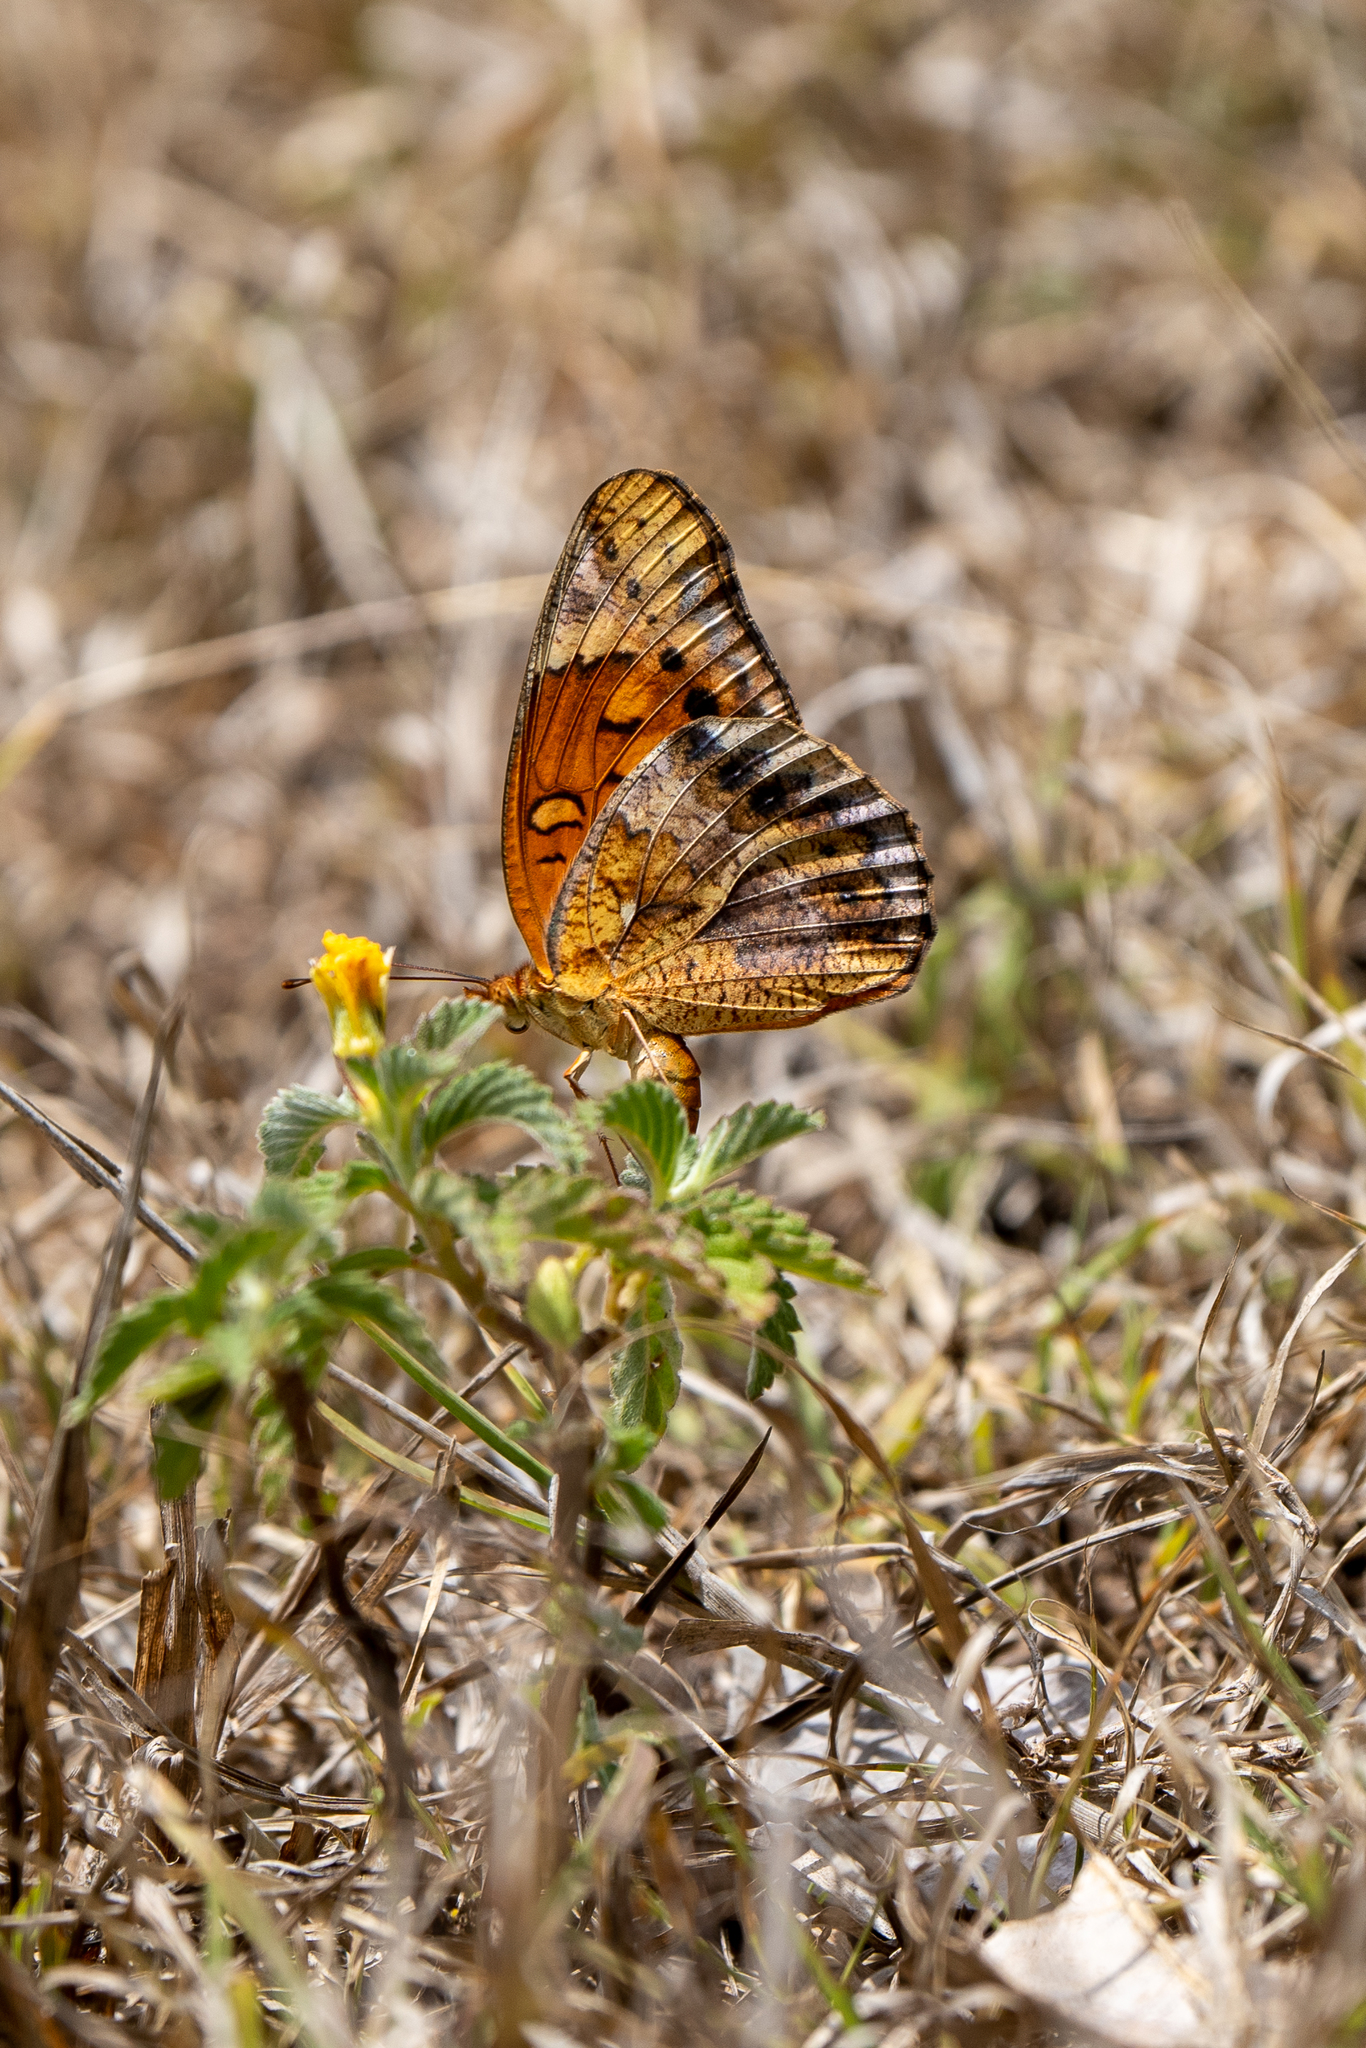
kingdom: Animalia
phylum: Arthropoda
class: Insecta
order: Lepidoptera
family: Nymphalidae
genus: Euptoieta
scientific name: Euptoieta hegesia
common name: Mexican fritillary
